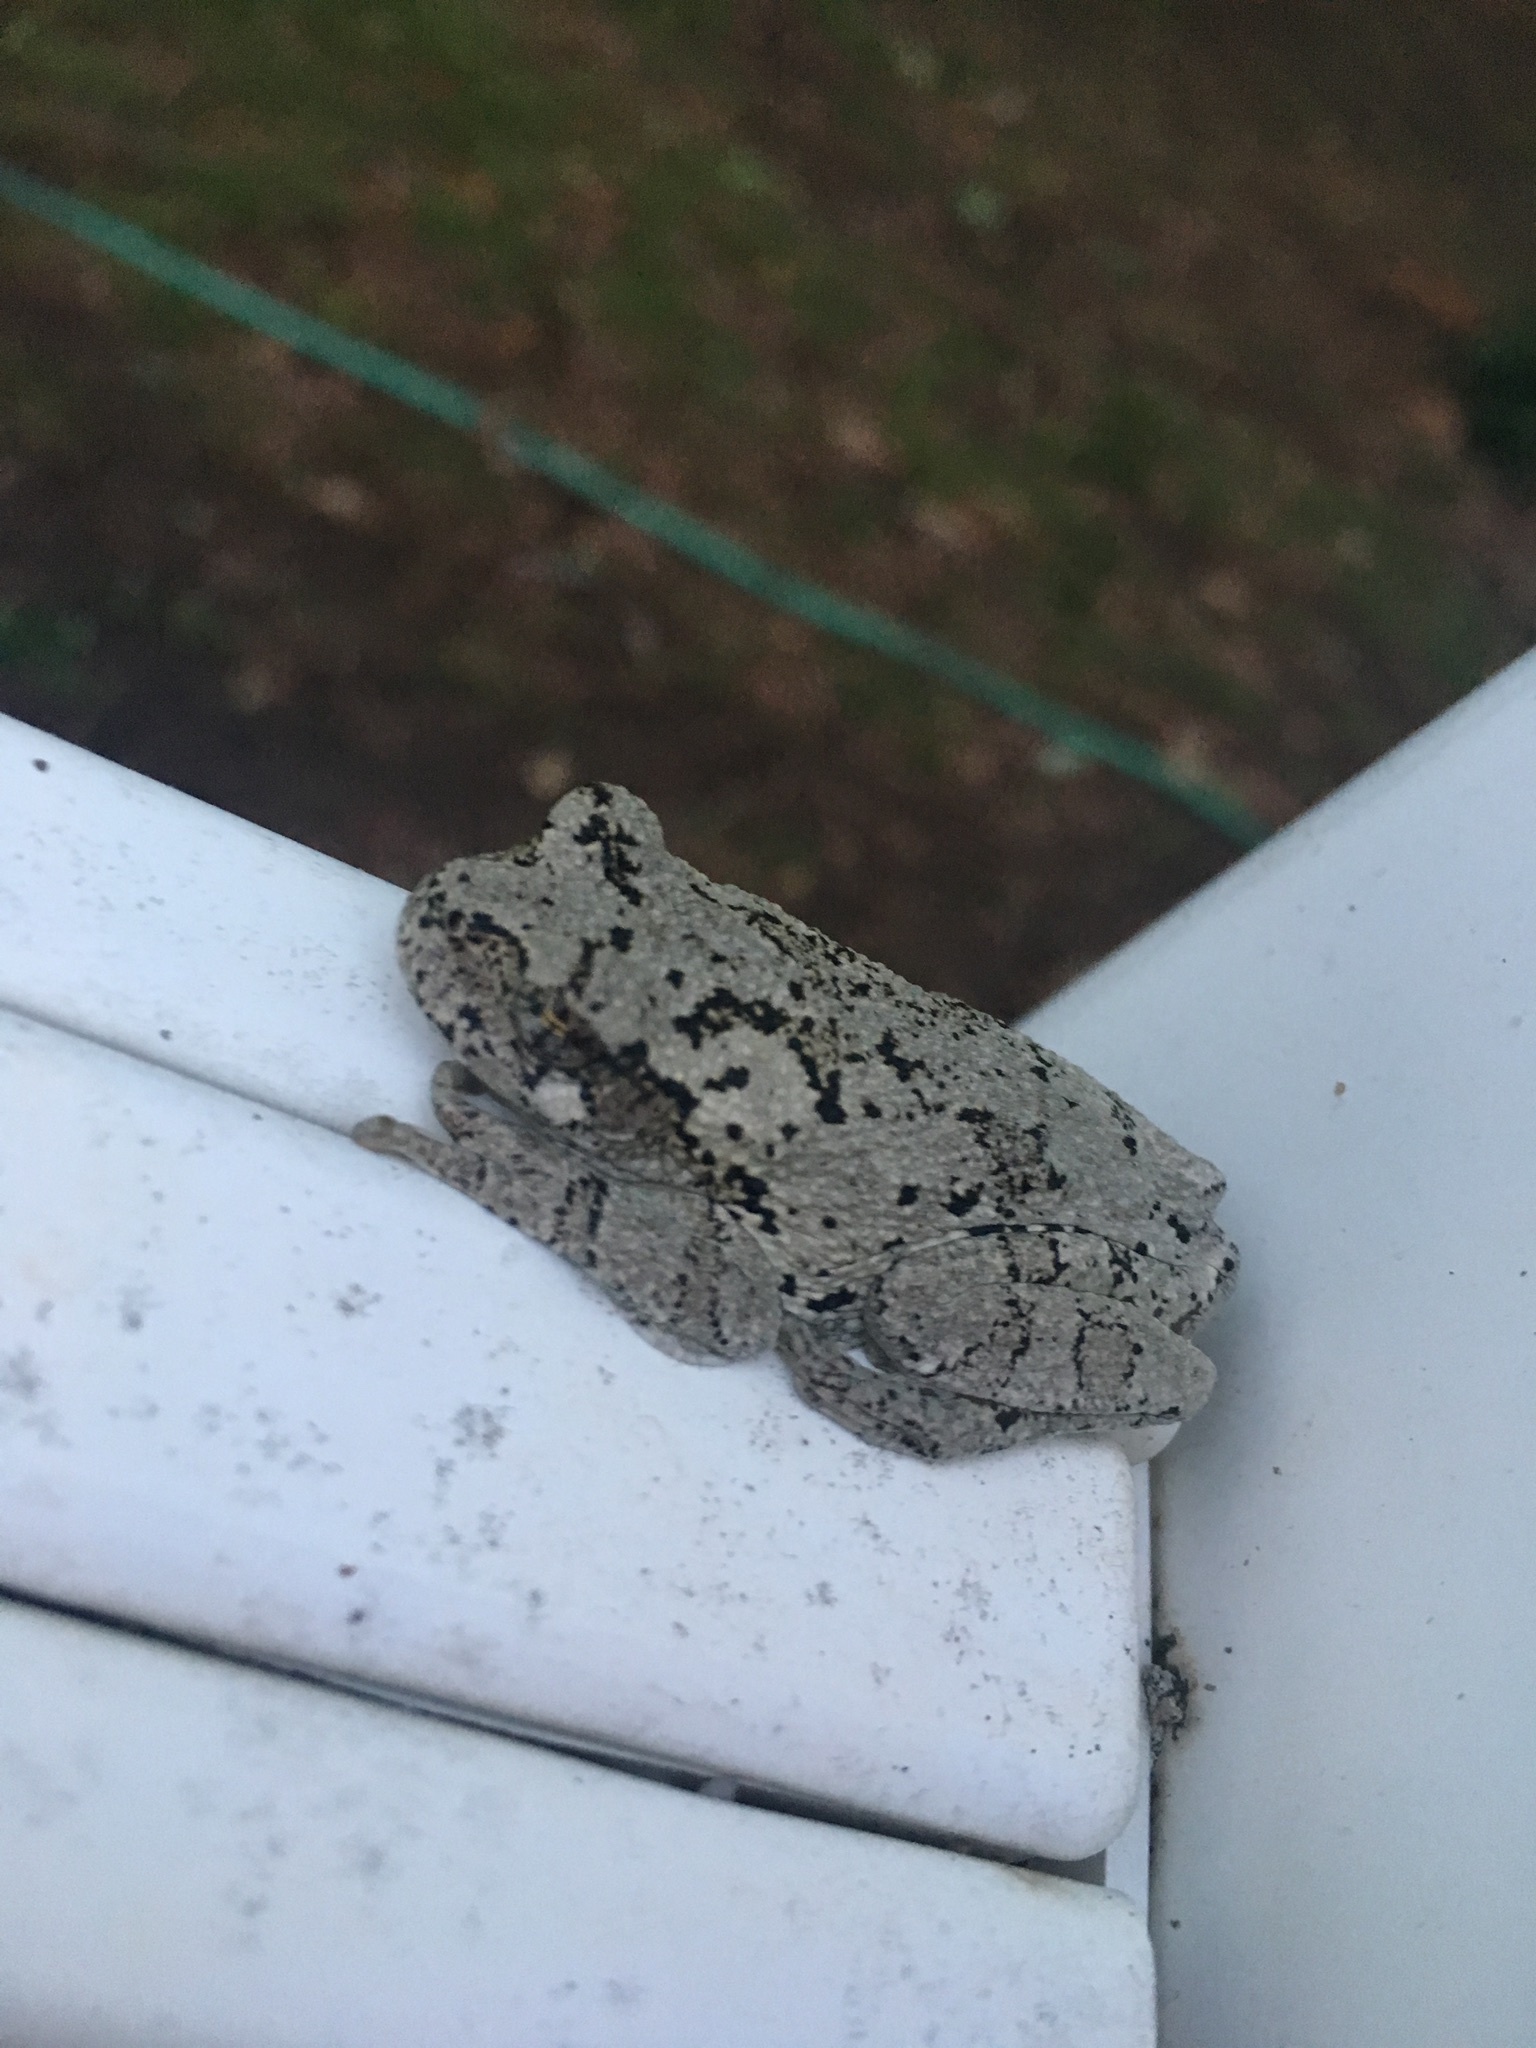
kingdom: Animalia
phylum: Chordata
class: Amphibia
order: Anura
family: Hylidae
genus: Dryophytes
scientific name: Dryophytes chrysoscelis
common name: Cope's gray treefrog
